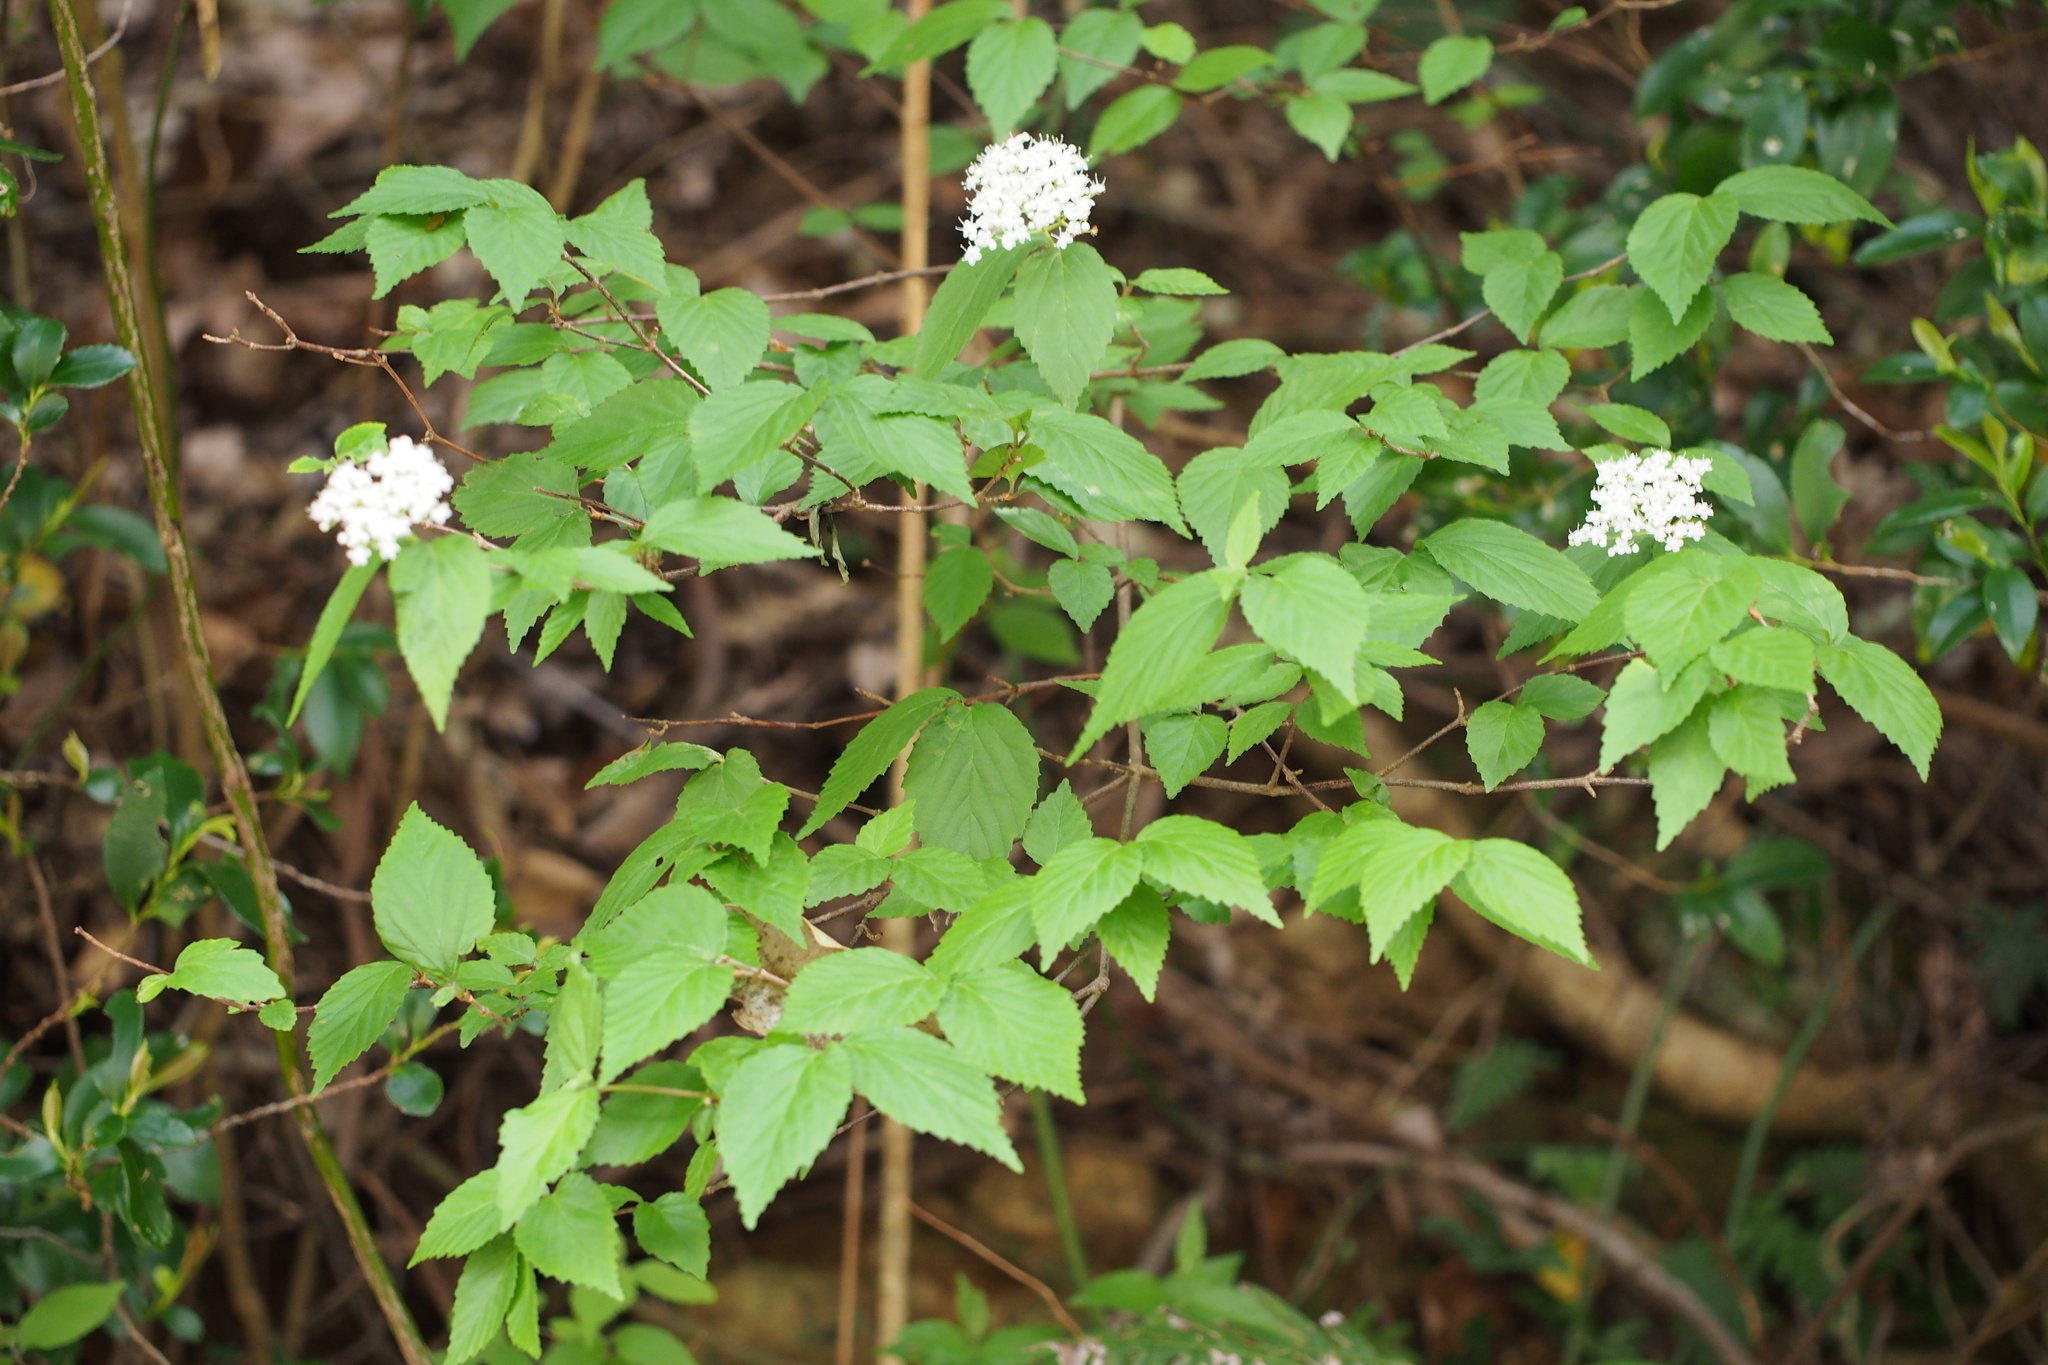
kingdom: Plantae
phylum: Tracheophyta
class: Magnoliopsida
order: Dipsacales
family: Viburnaceae
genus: Viburnum
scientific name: Viburnum erosum
